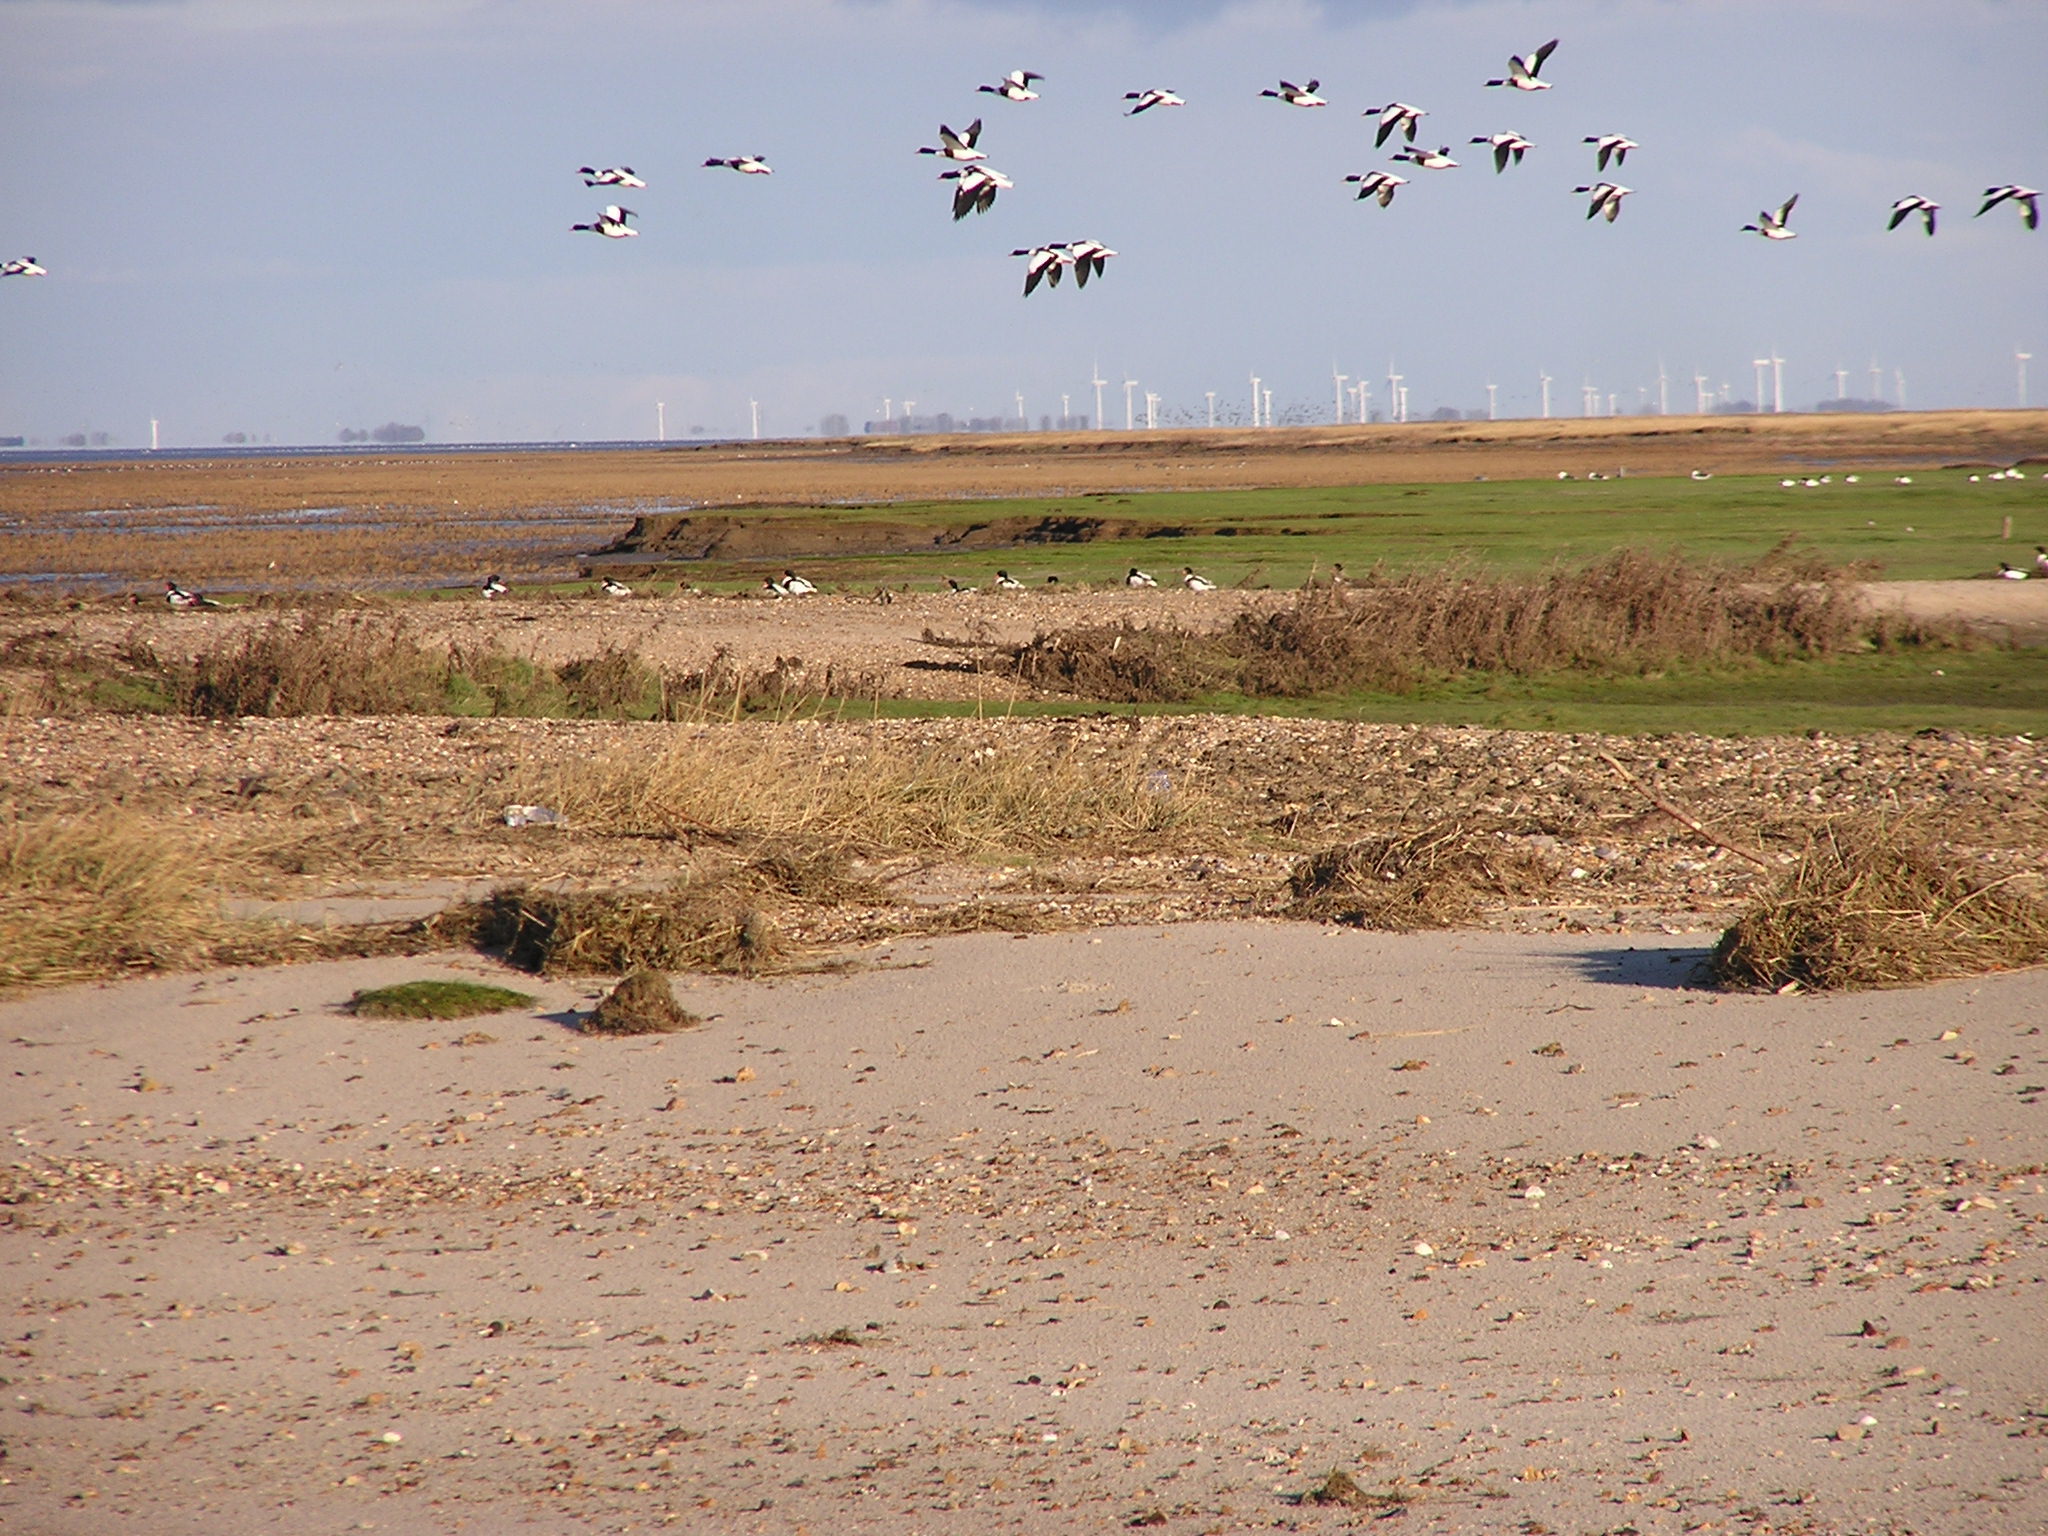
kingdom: Animalia
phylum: Chordata
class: Aves
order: Anseriformes
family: Anatidae
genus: Tadorna
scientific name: Tadorna tadorna
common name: Common shelduck
